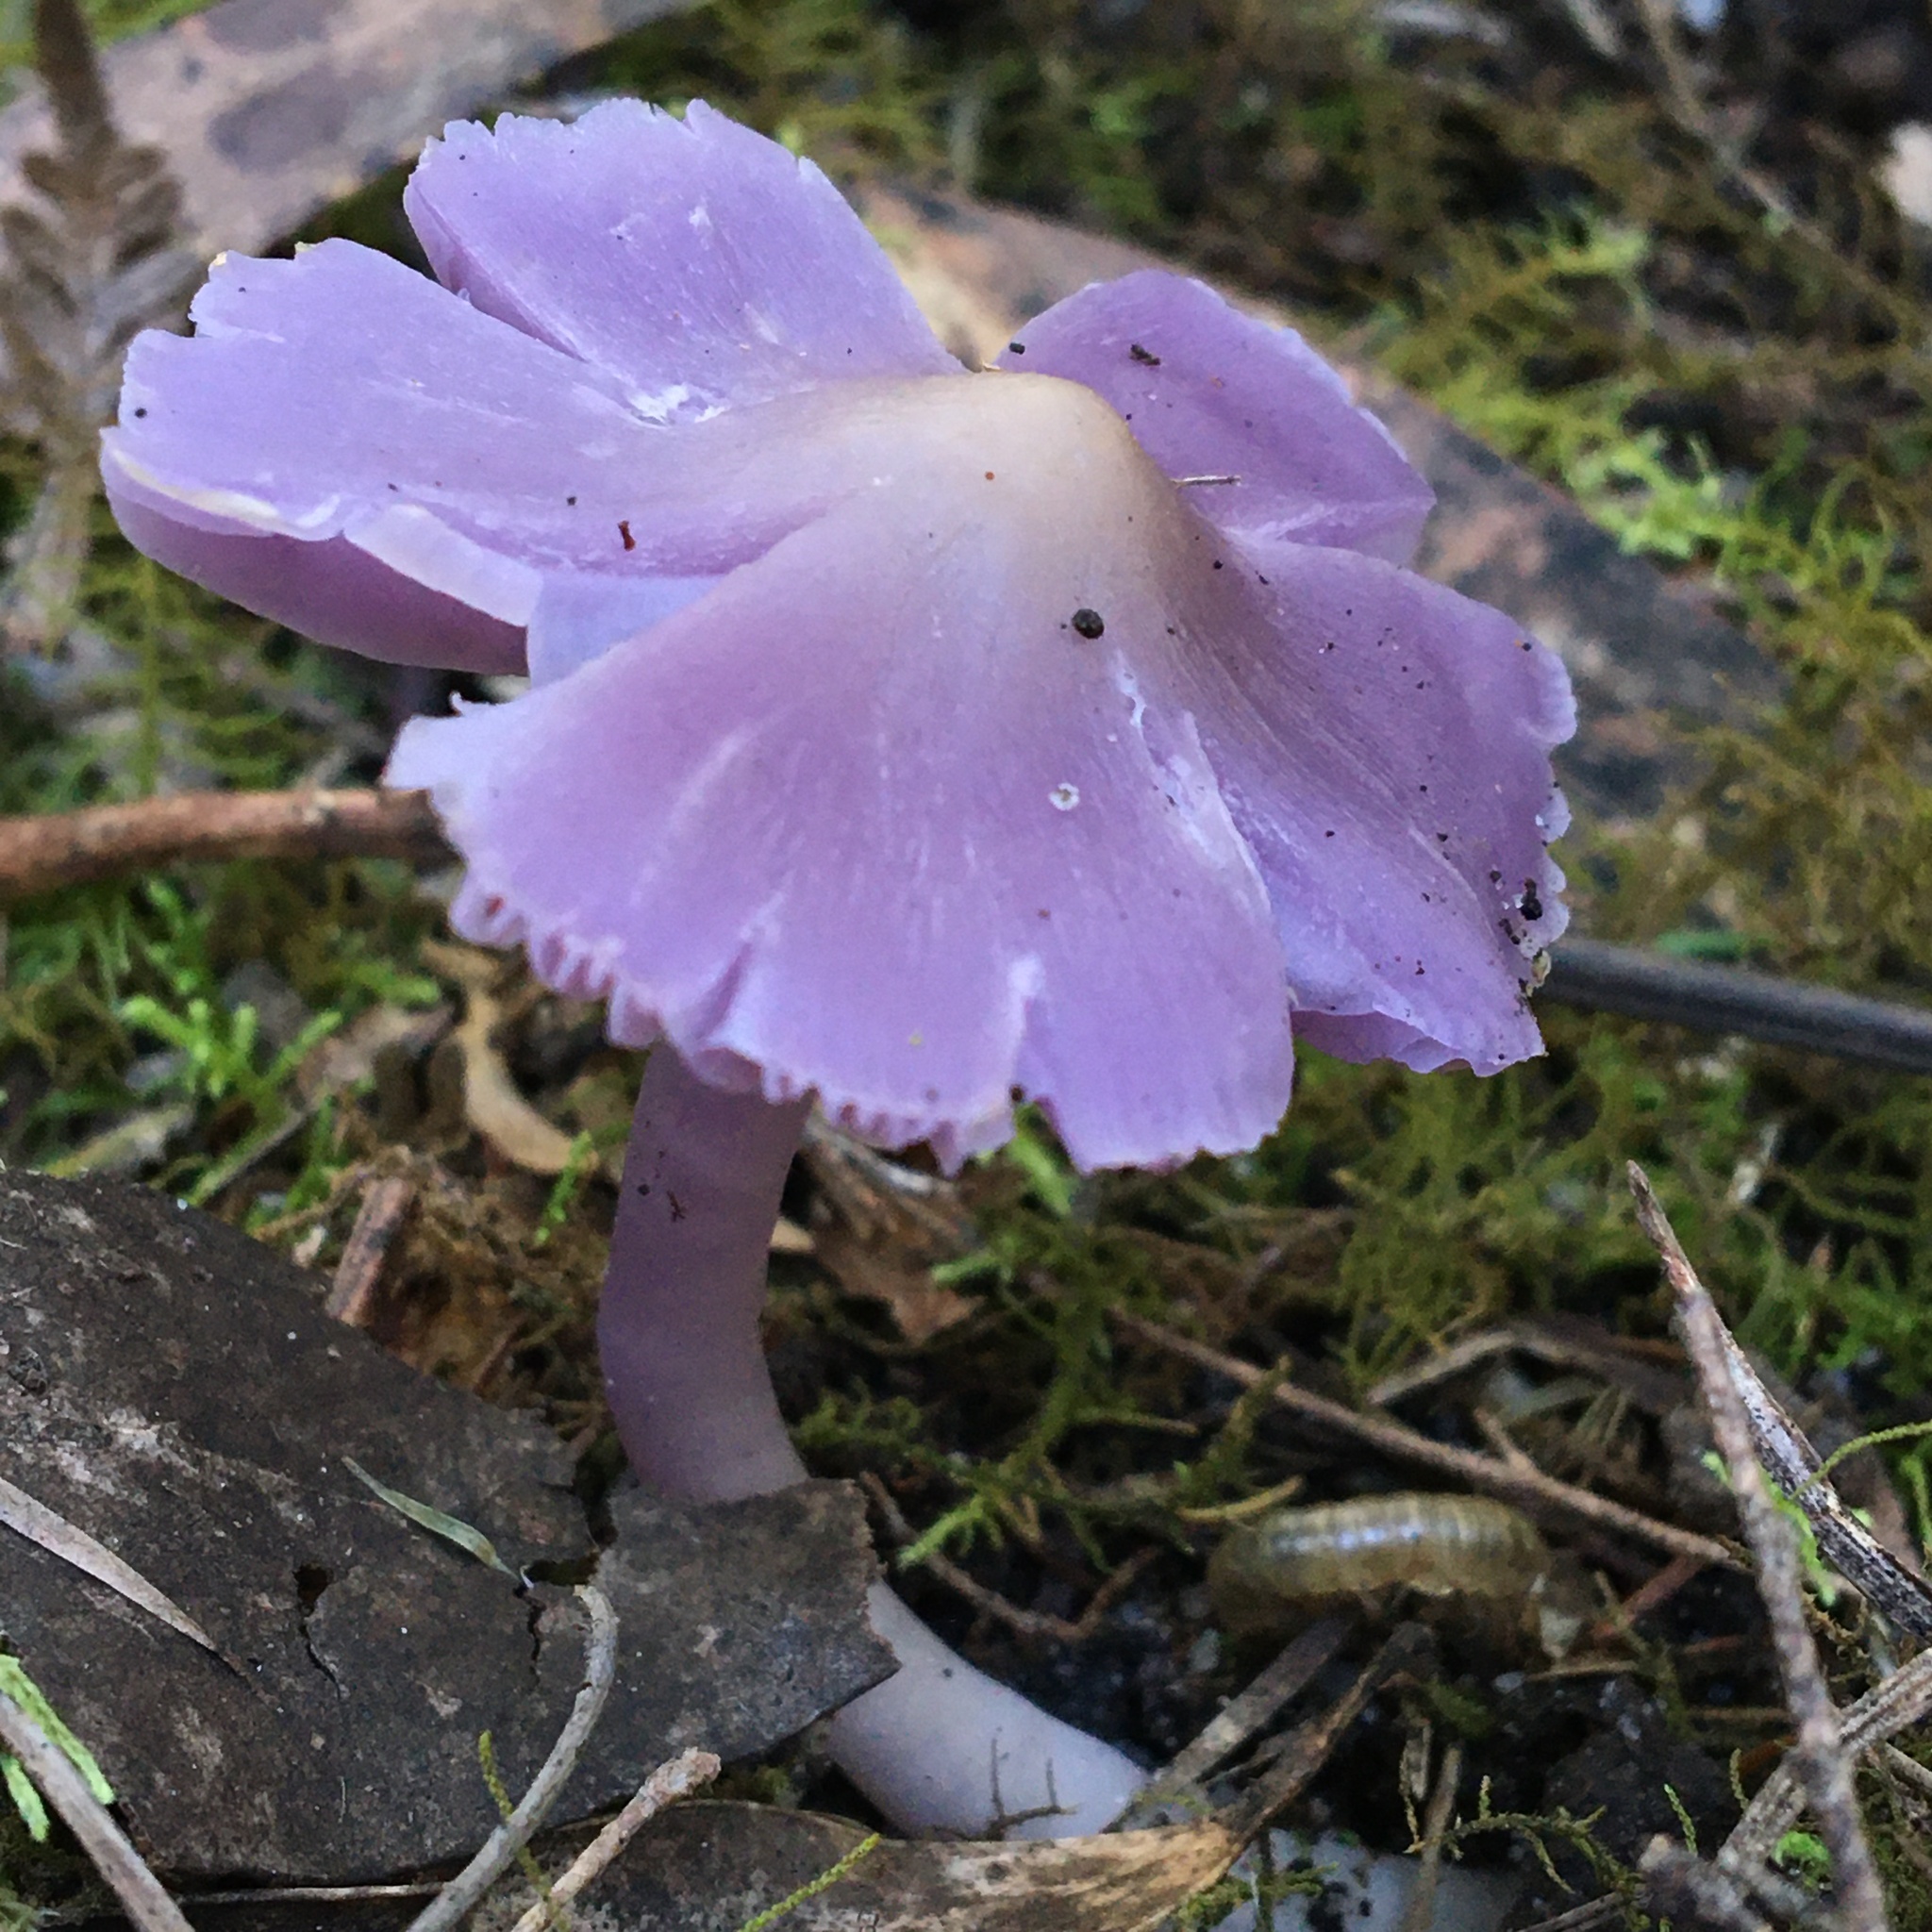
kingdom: Fungi
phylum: Basidiomycota
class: Agaricomycetes
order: Agaricales
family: Hygrophoraceae
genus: Porpolomopsis
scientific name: Porpolomopsis lewelliniae
